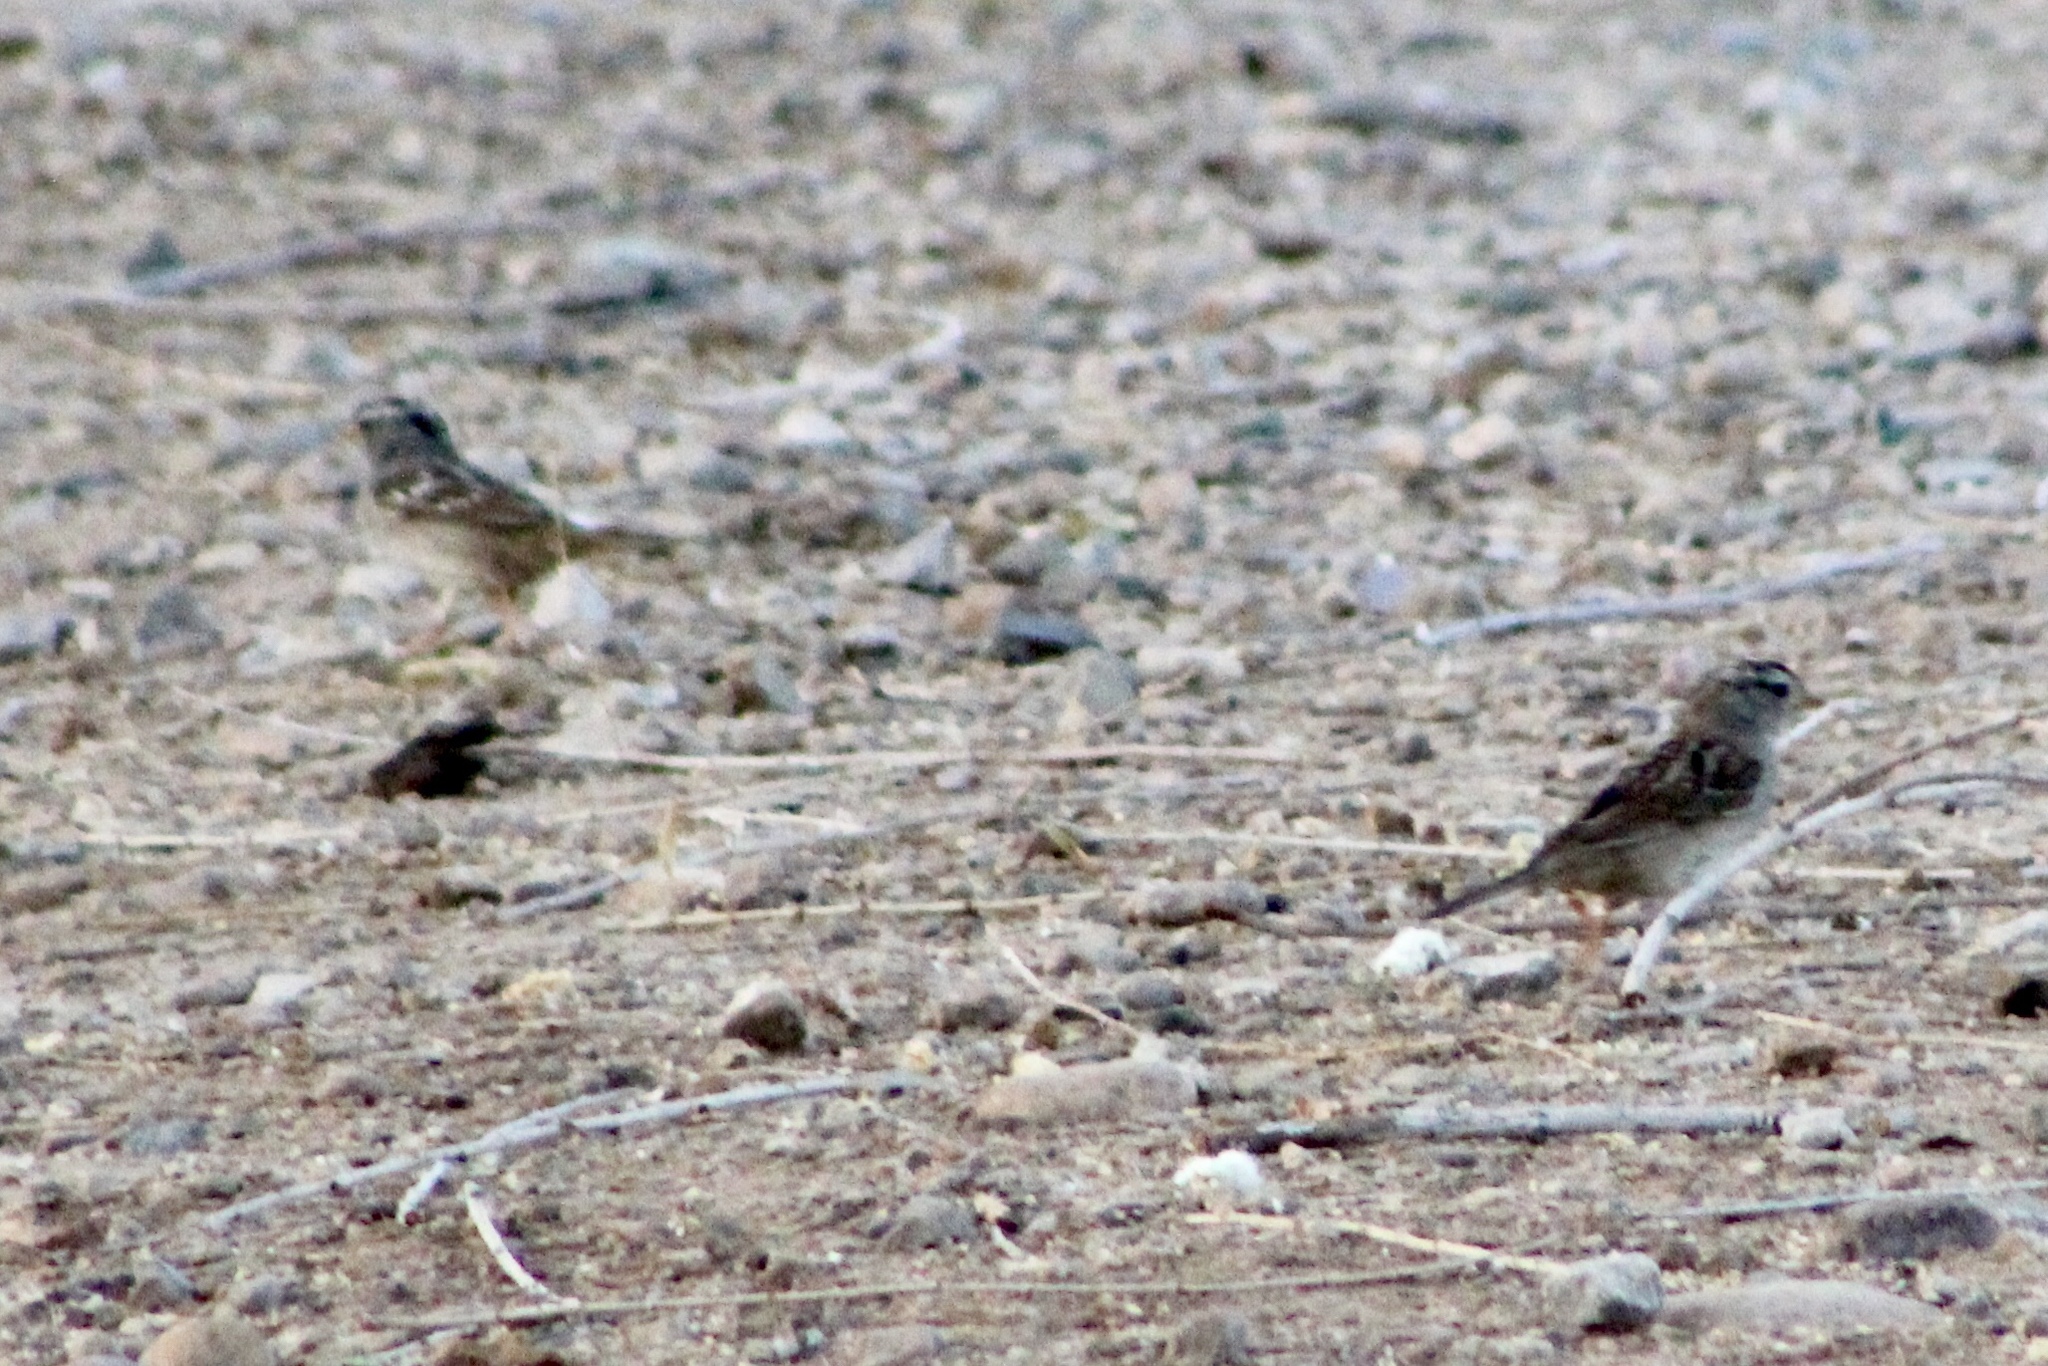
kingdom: Animalia
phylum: Chordata
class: Aves
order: Passeriformes
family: Passerellidae
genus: Zonotrichia
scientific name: Zonotrichia leucophrys
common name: White-crowned sparrow
